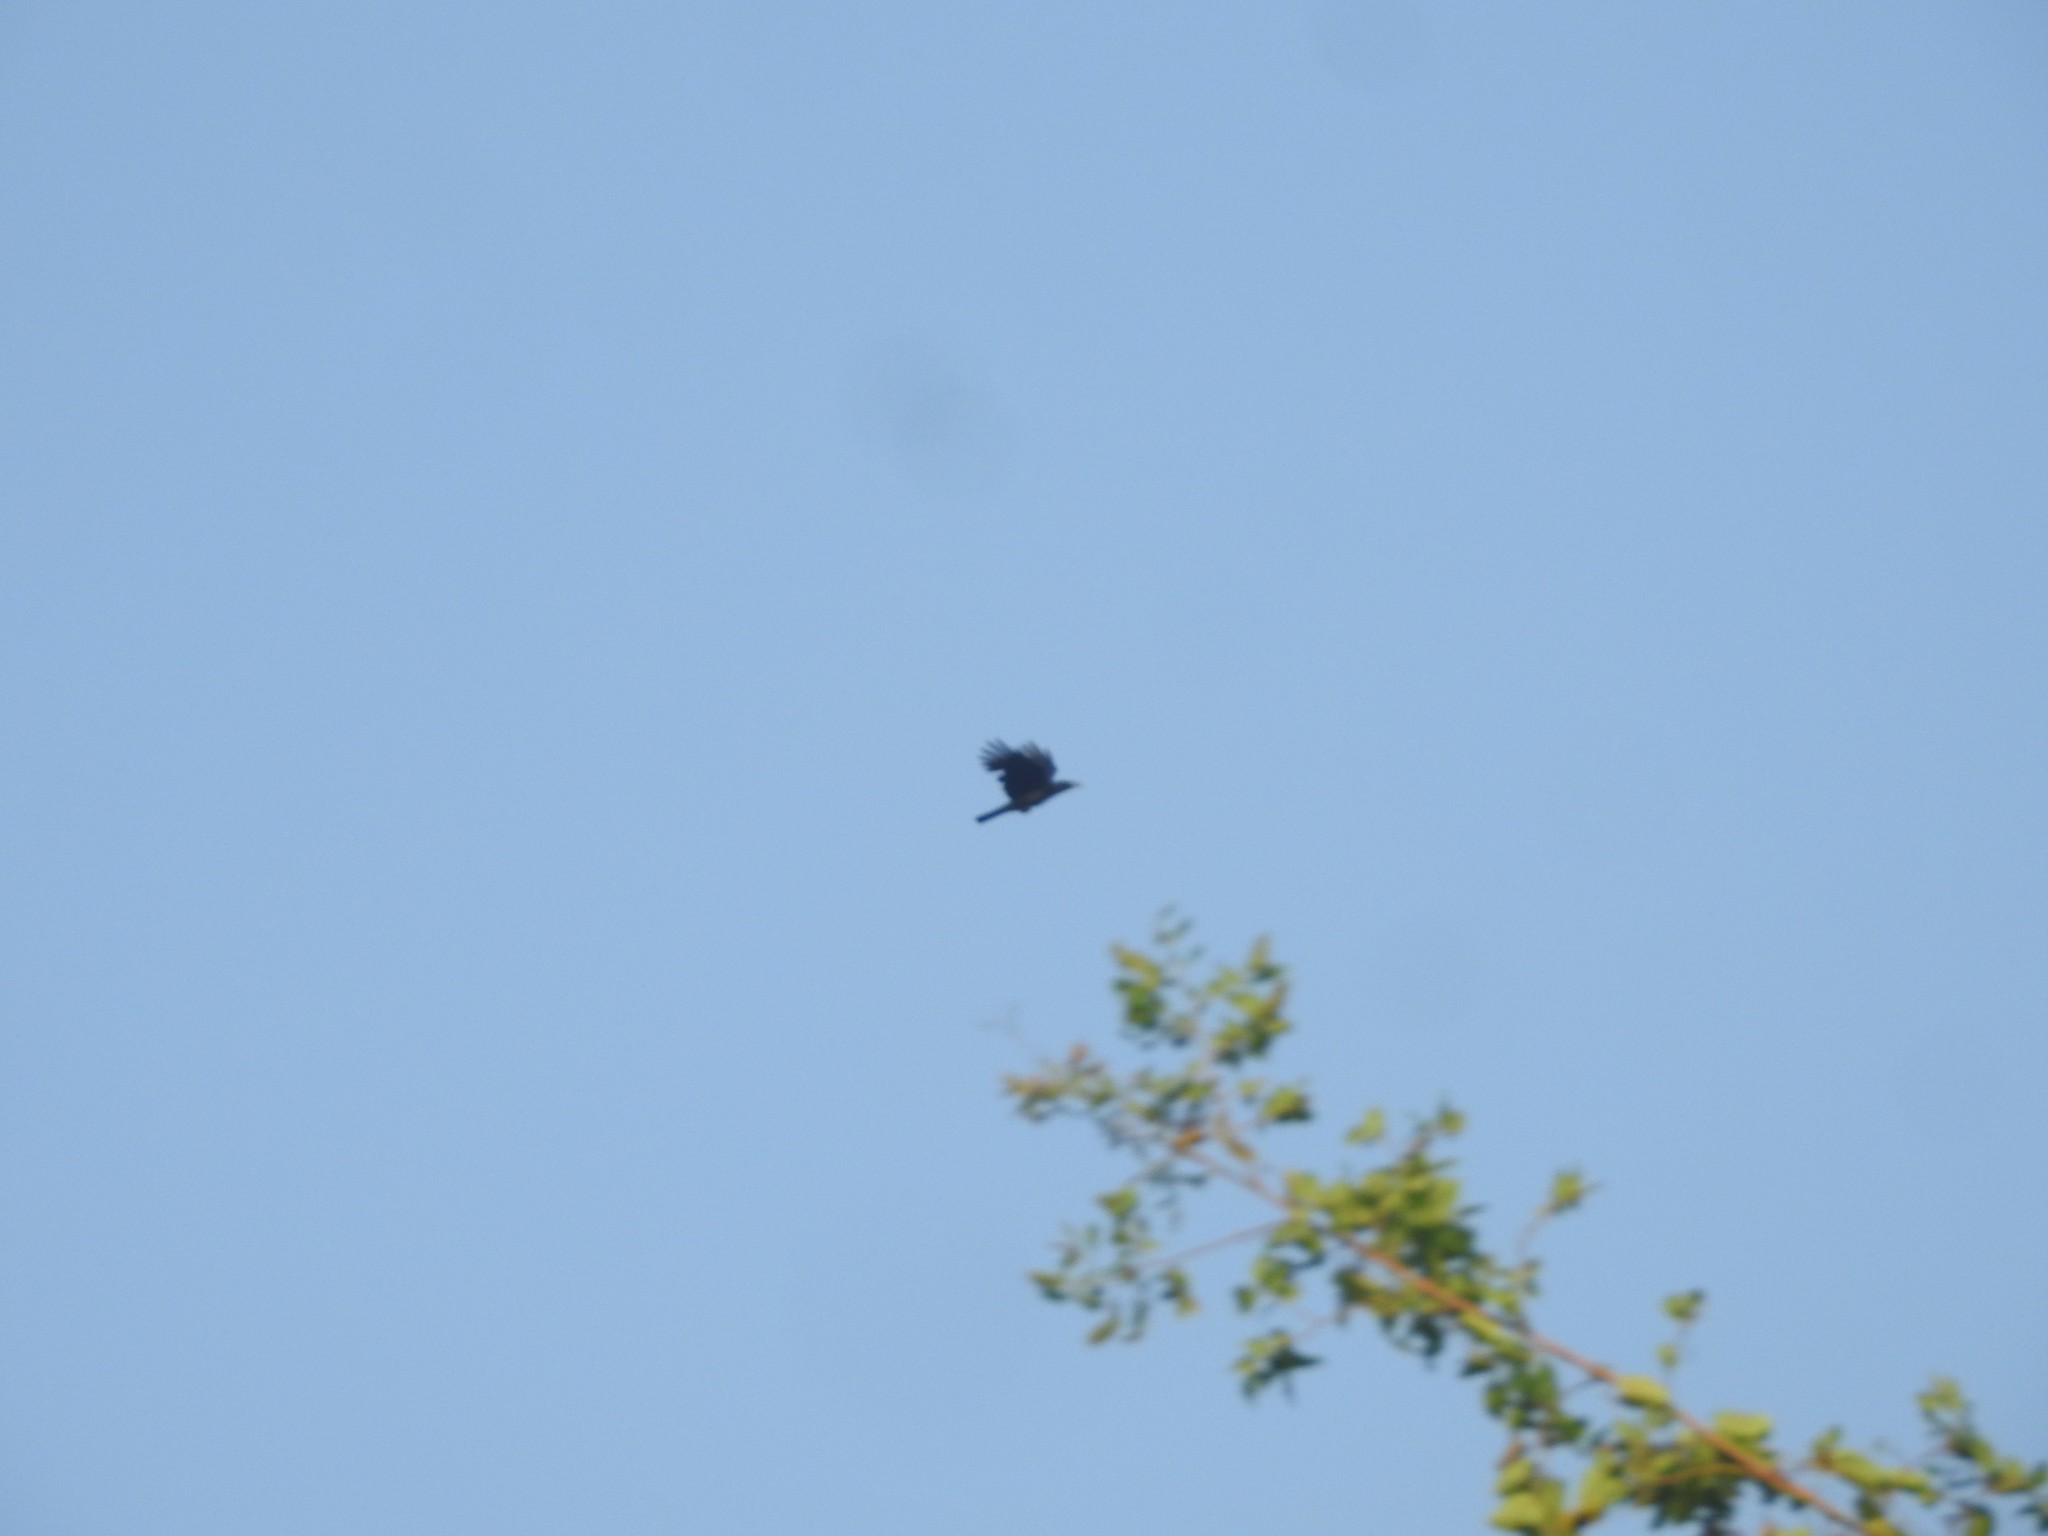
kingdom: Animalia
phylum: Chordata
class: Aves
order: Passeriformes
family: Corvidae
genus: Corvus
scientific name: Corvus splendens
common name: House crow
